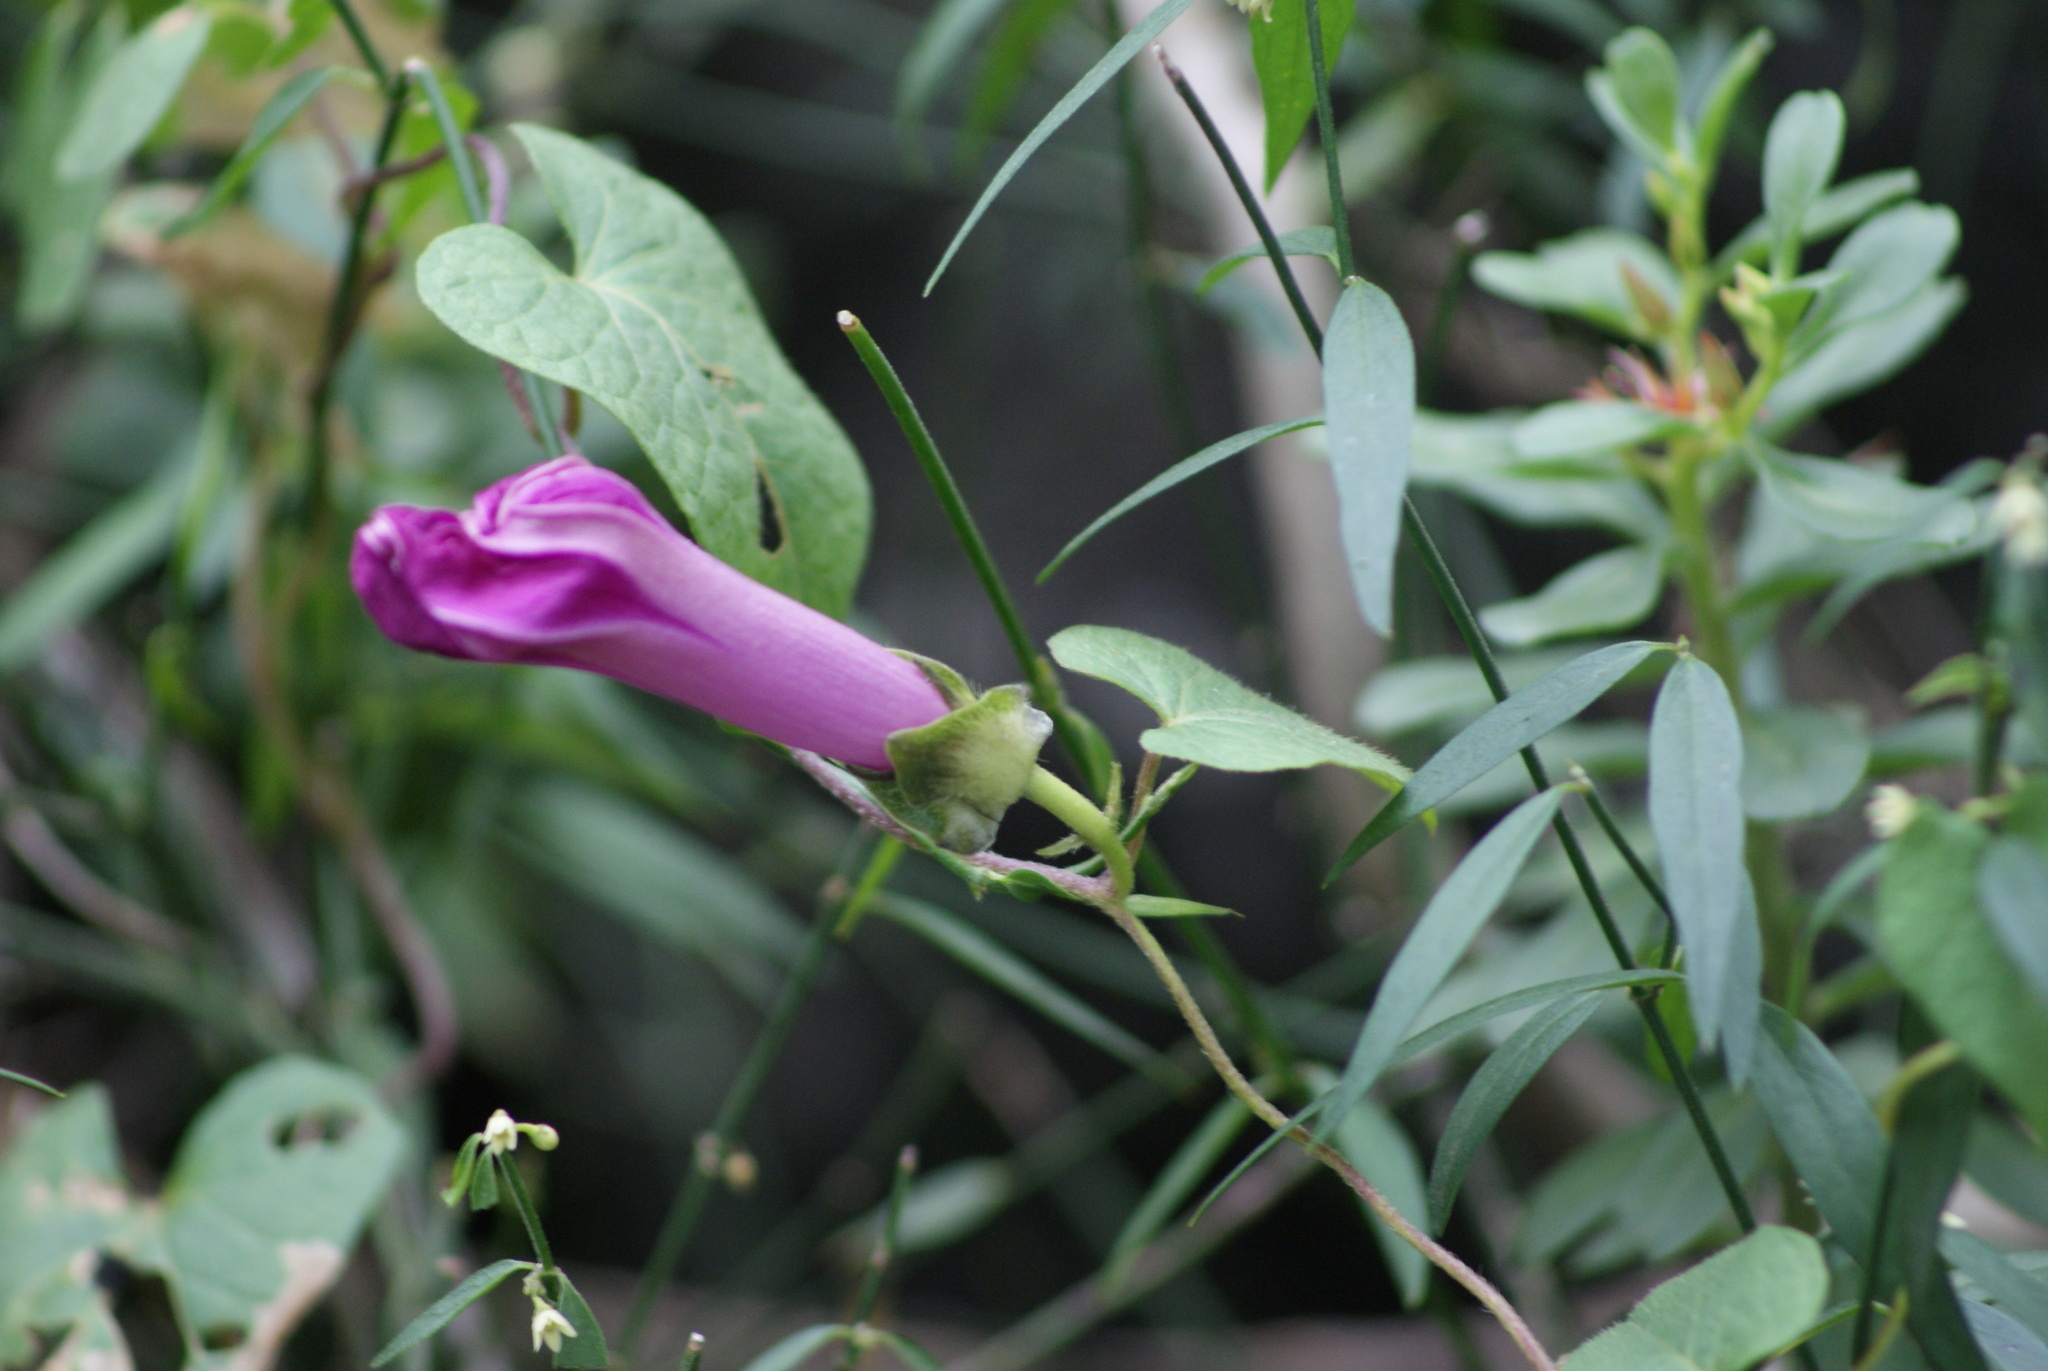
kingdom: Plantae
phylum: Tracheophyta
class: Magnoliopsida
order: Solanales
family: Convolvulaceae
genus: Ipomoea
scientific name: Ipomoea decasperma
